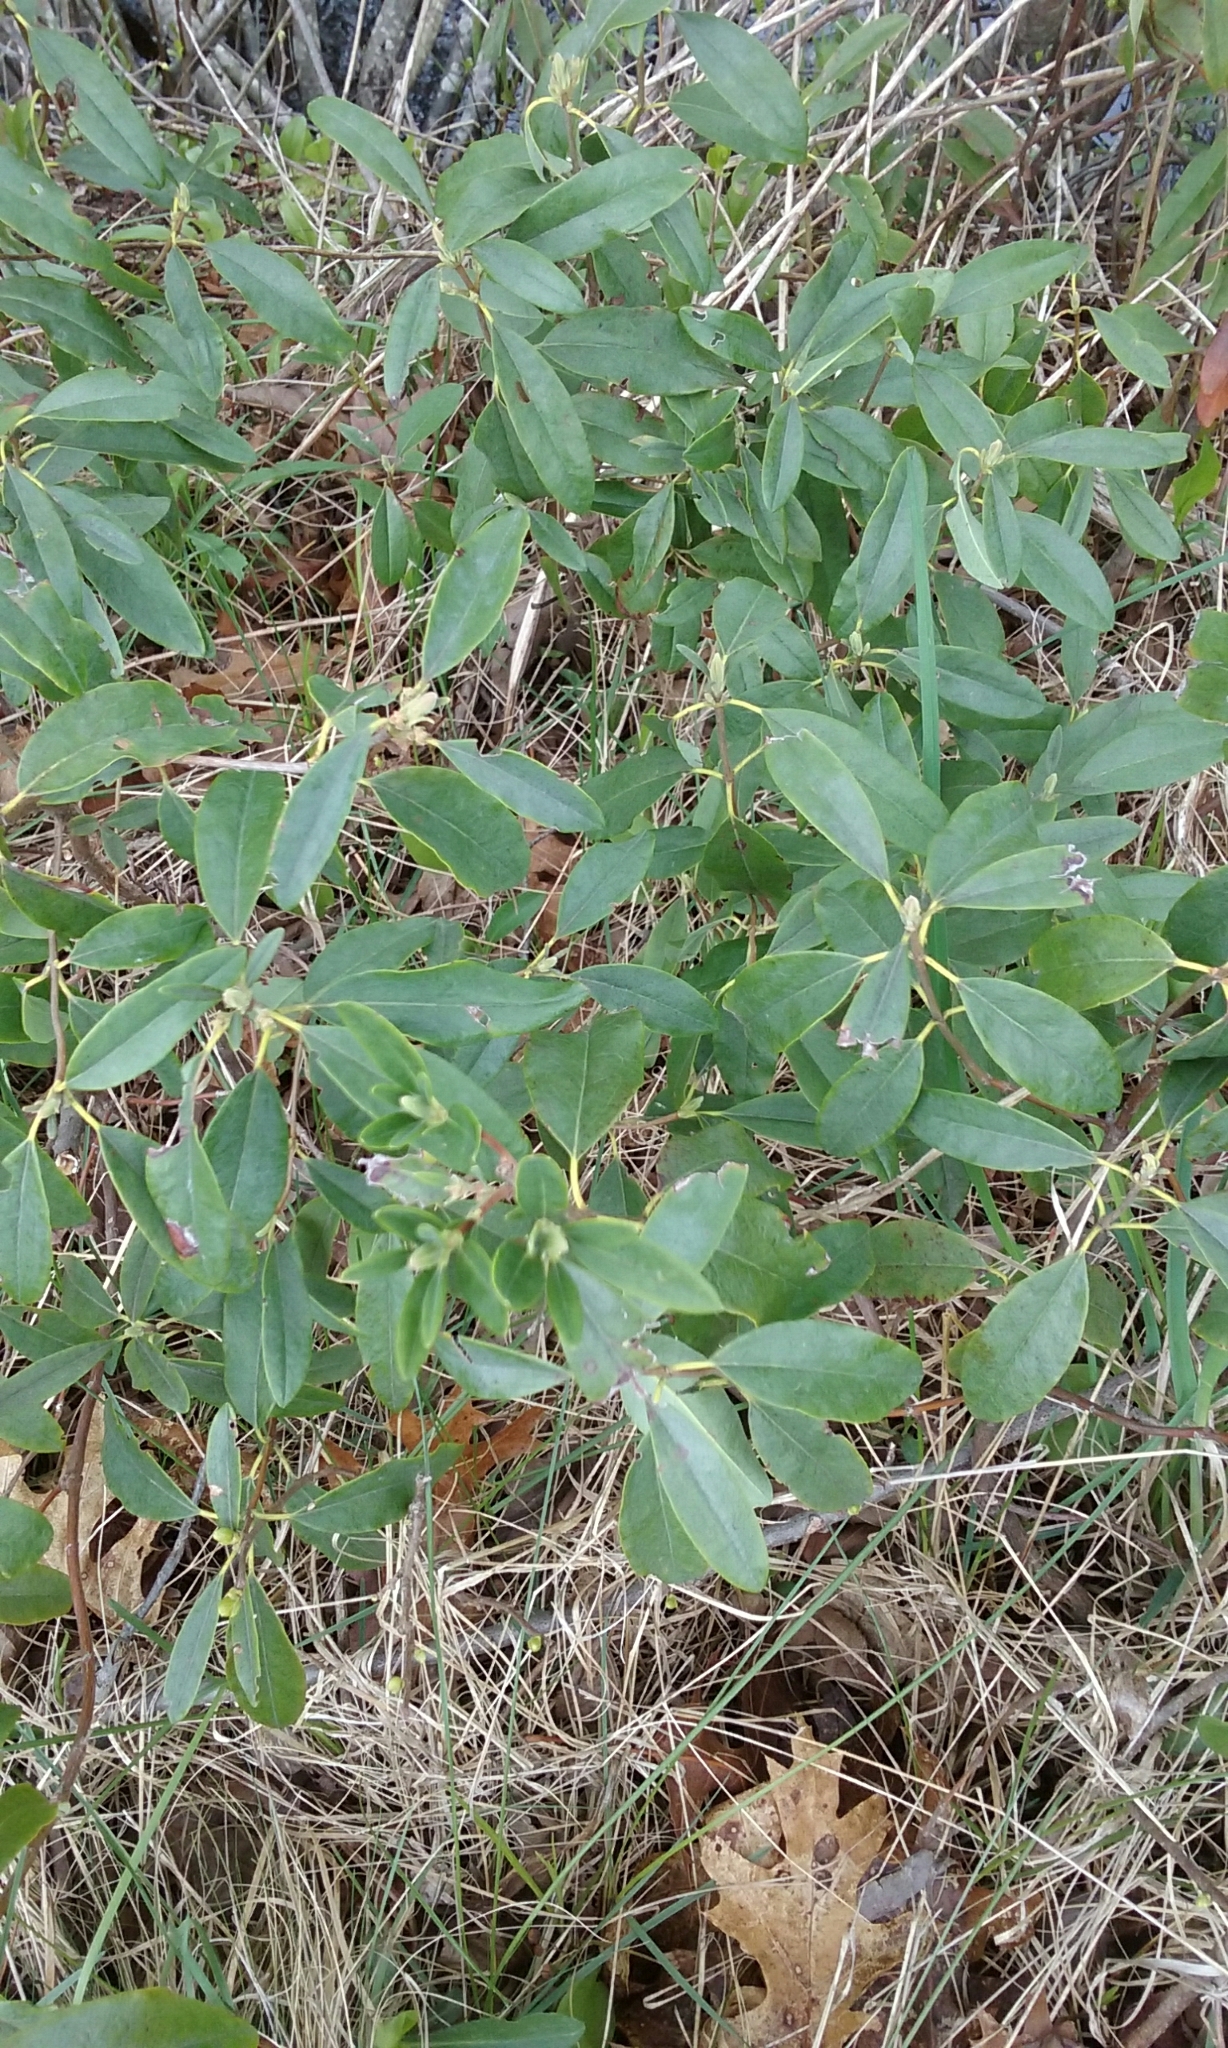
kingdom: Plantae
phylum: Tracheophyta
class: Magnoliopsida
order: Ericales
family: Ericaceae
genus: Kalmia
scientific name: Kalmia angustifolia
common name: Sheep-laurel
